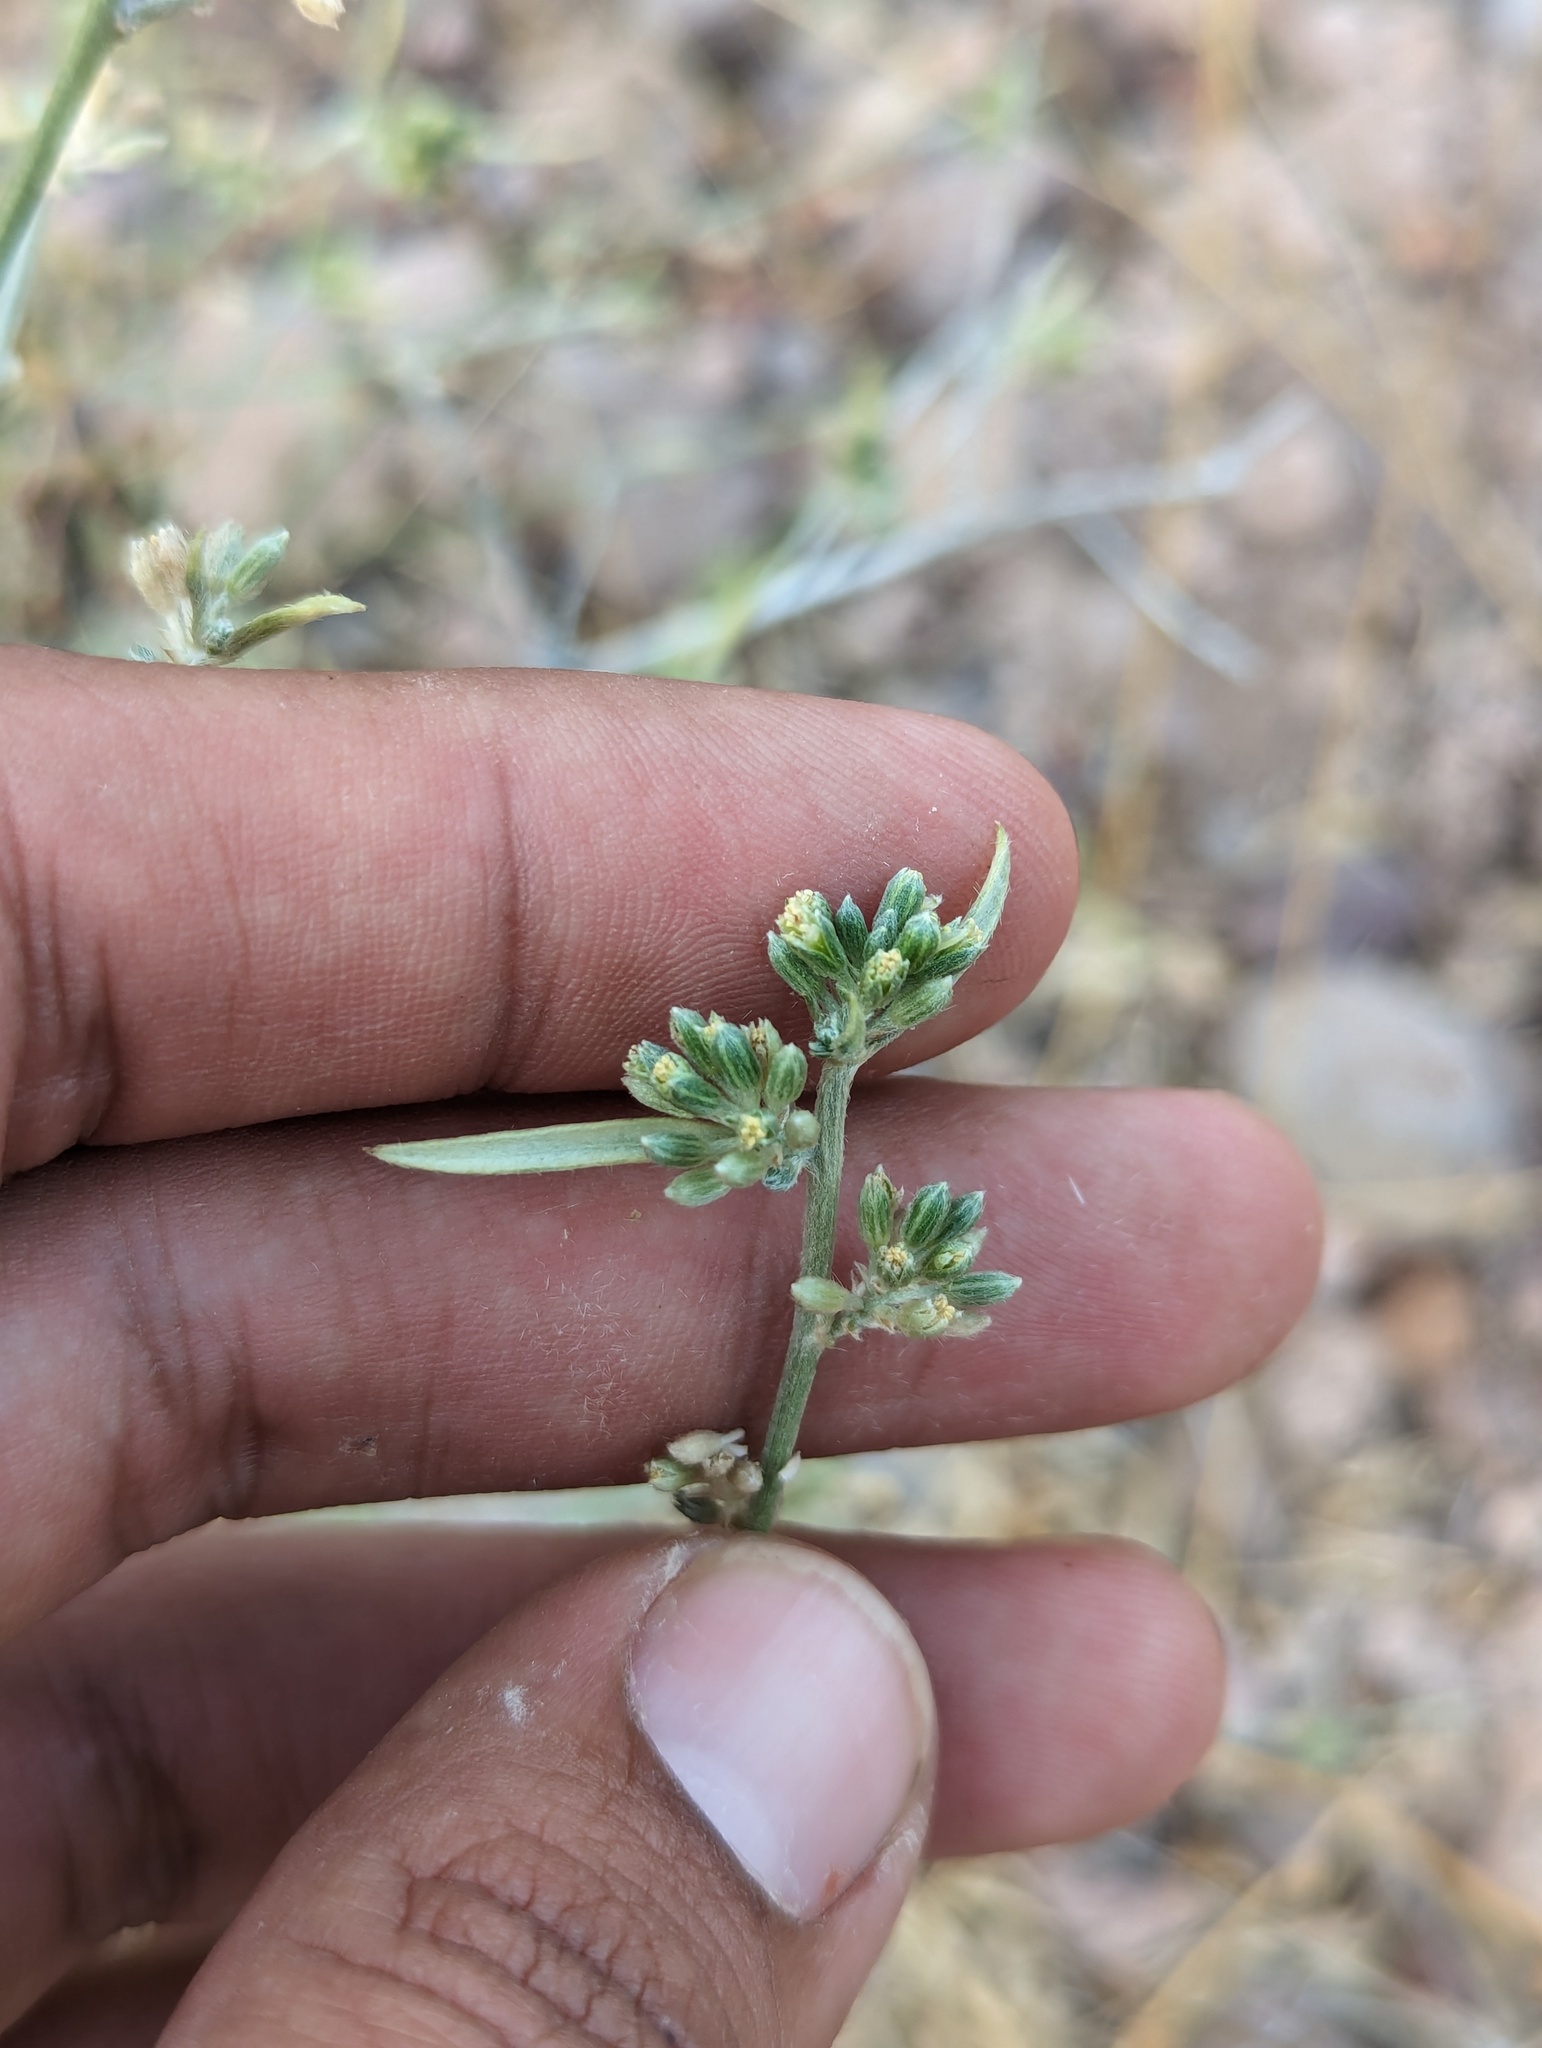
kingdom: Plantae
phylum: Tracheophyta
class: Magnoliopsida
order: Malpighiales
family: Euphorbiaceae
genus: Ditaxis
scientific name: Ditaxis lanceolata
